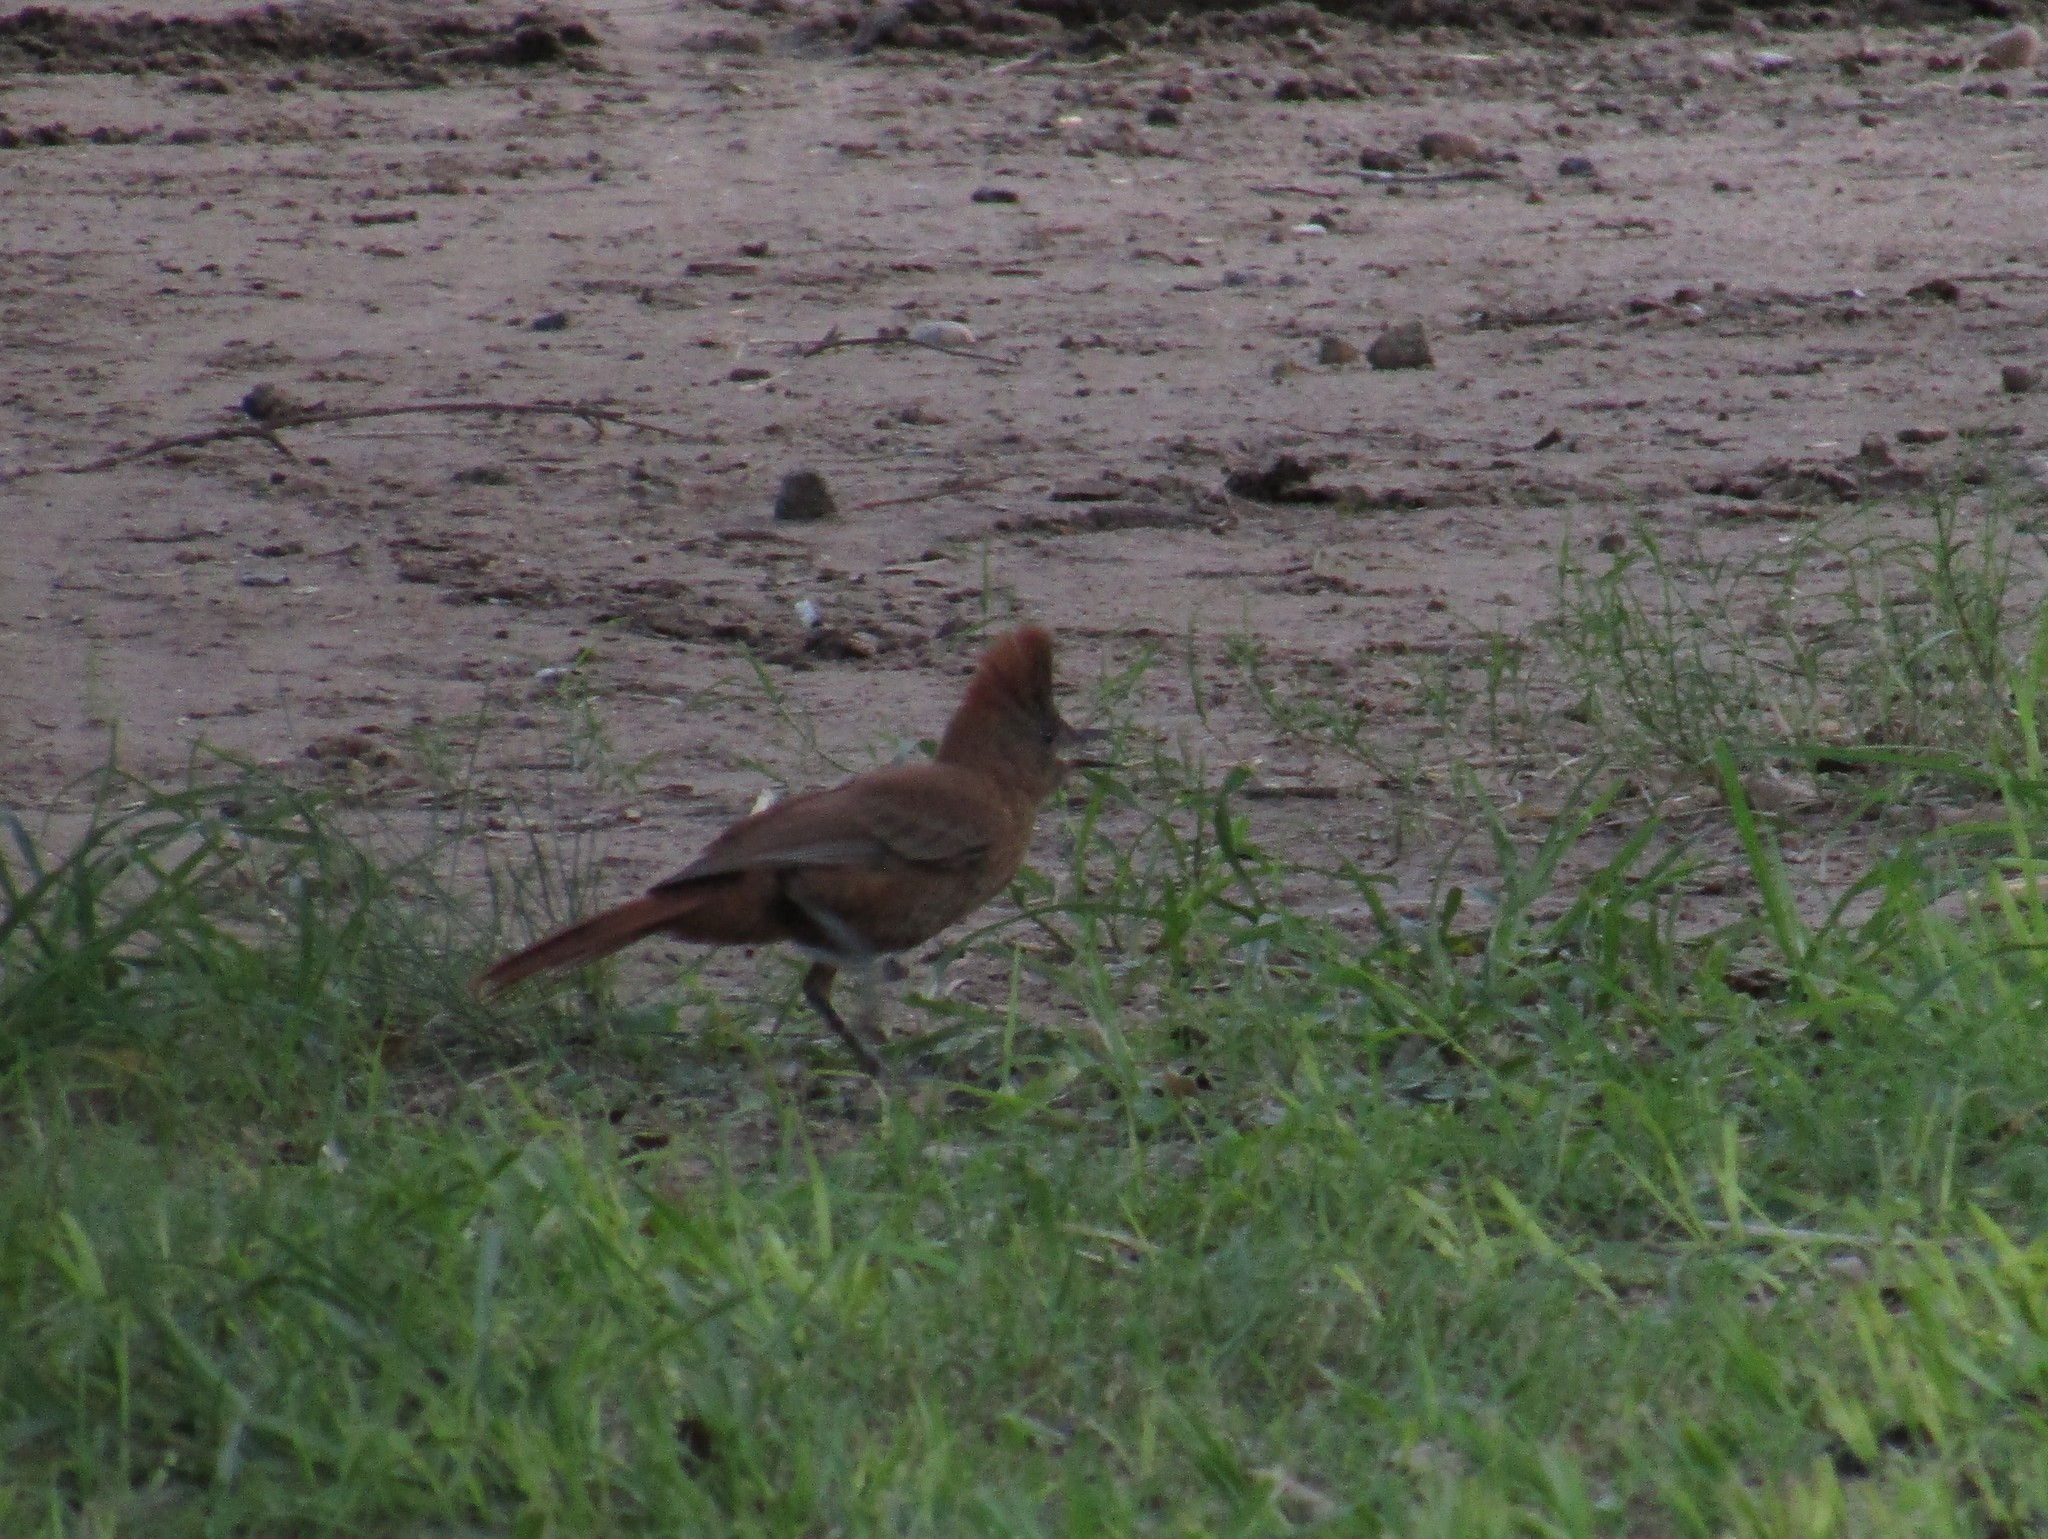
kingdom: Animalia
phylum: Chordata
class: Aves
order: Passeriformes
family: Furnariidae
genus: Pseudoseisura
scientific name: Pseudoseisura lophotes
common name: Brown cacholote
